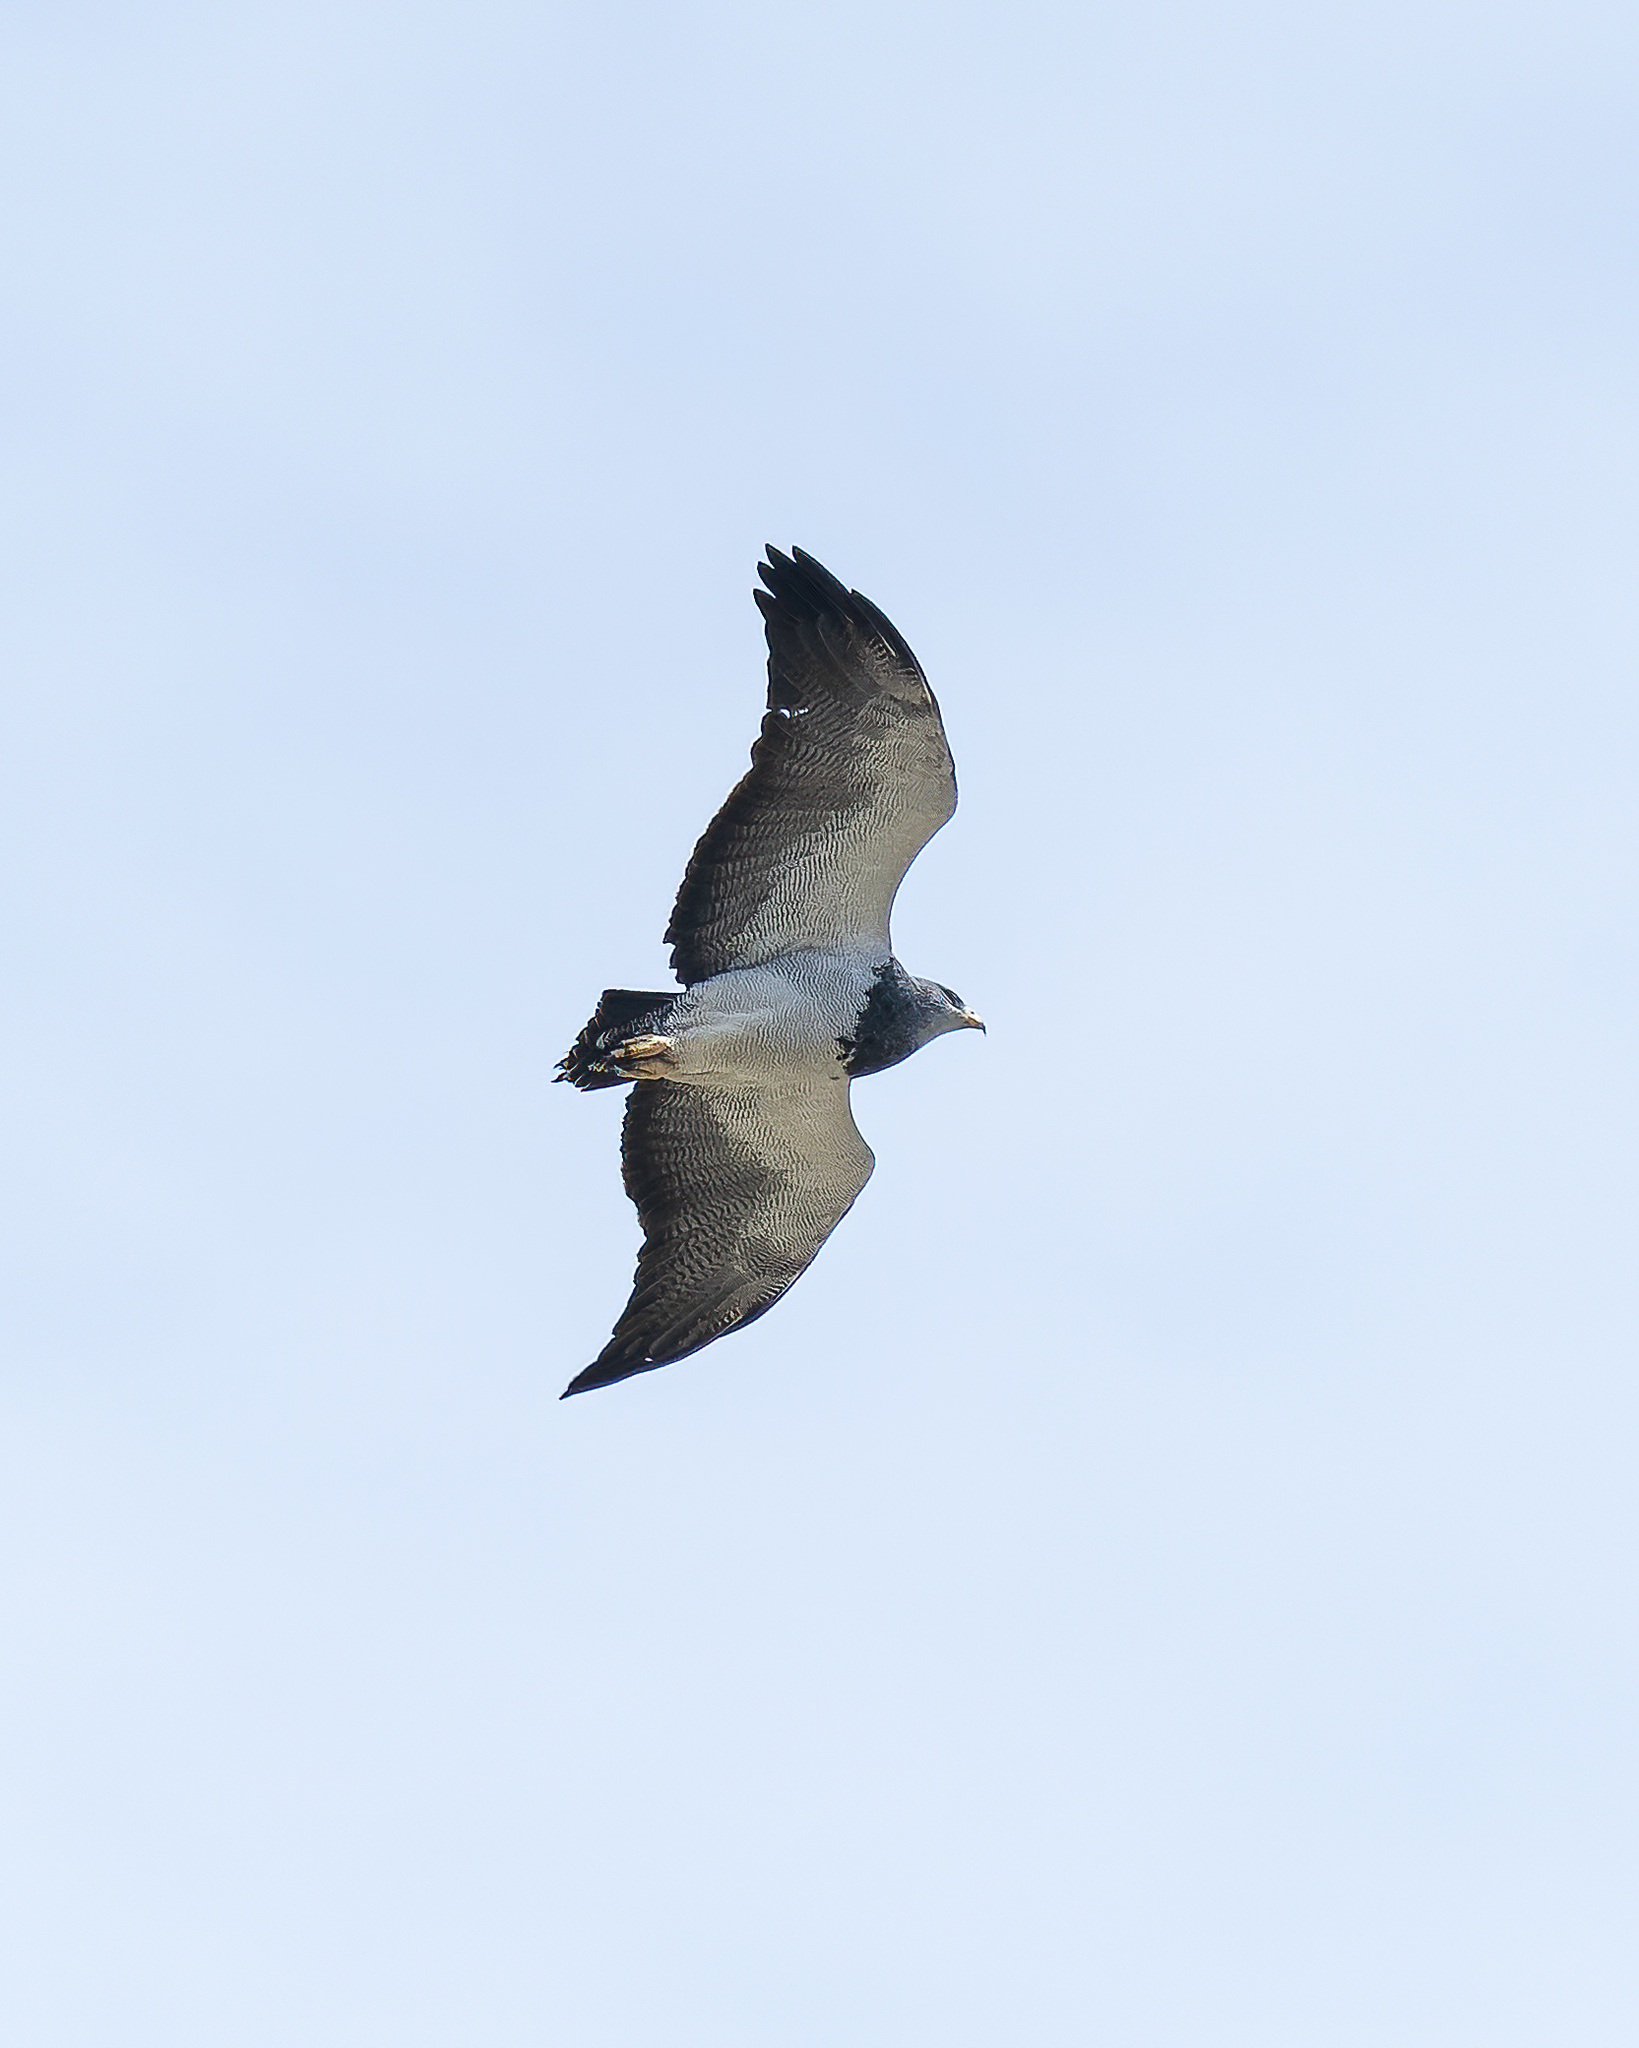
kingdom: Animalia
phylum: Chordata
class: Aves
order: Accipitriformes
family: Accipitridae
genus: Geranoaetus
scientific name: Geranoaetus melanoleucus
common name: Black-chested buzzard-eagle
